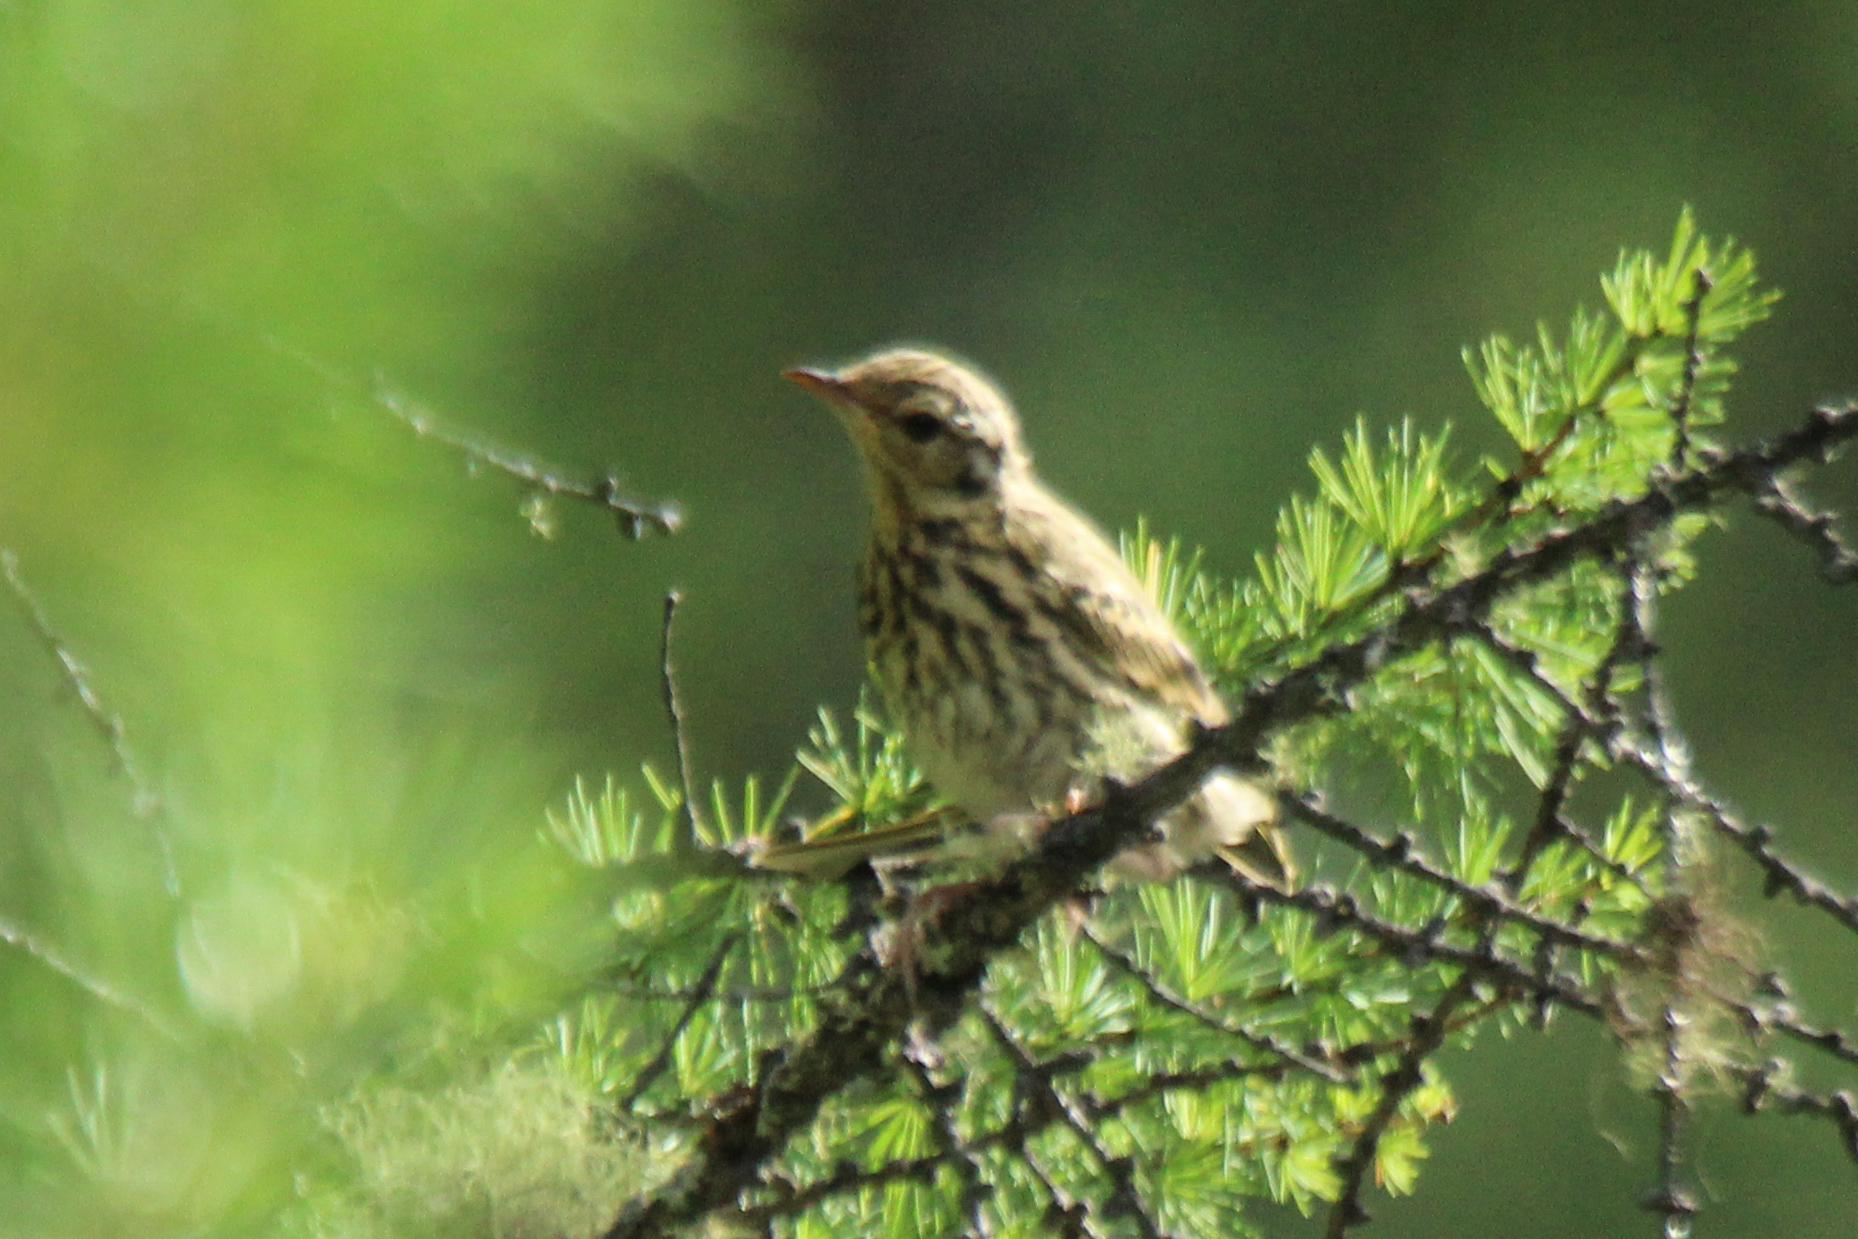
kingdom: Animalia
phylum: Chordata
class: Aves
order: Passeriformes
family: Motacillidae
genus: Anthus
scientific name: Anthus hodgsoni
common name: Olive-backed pipit
